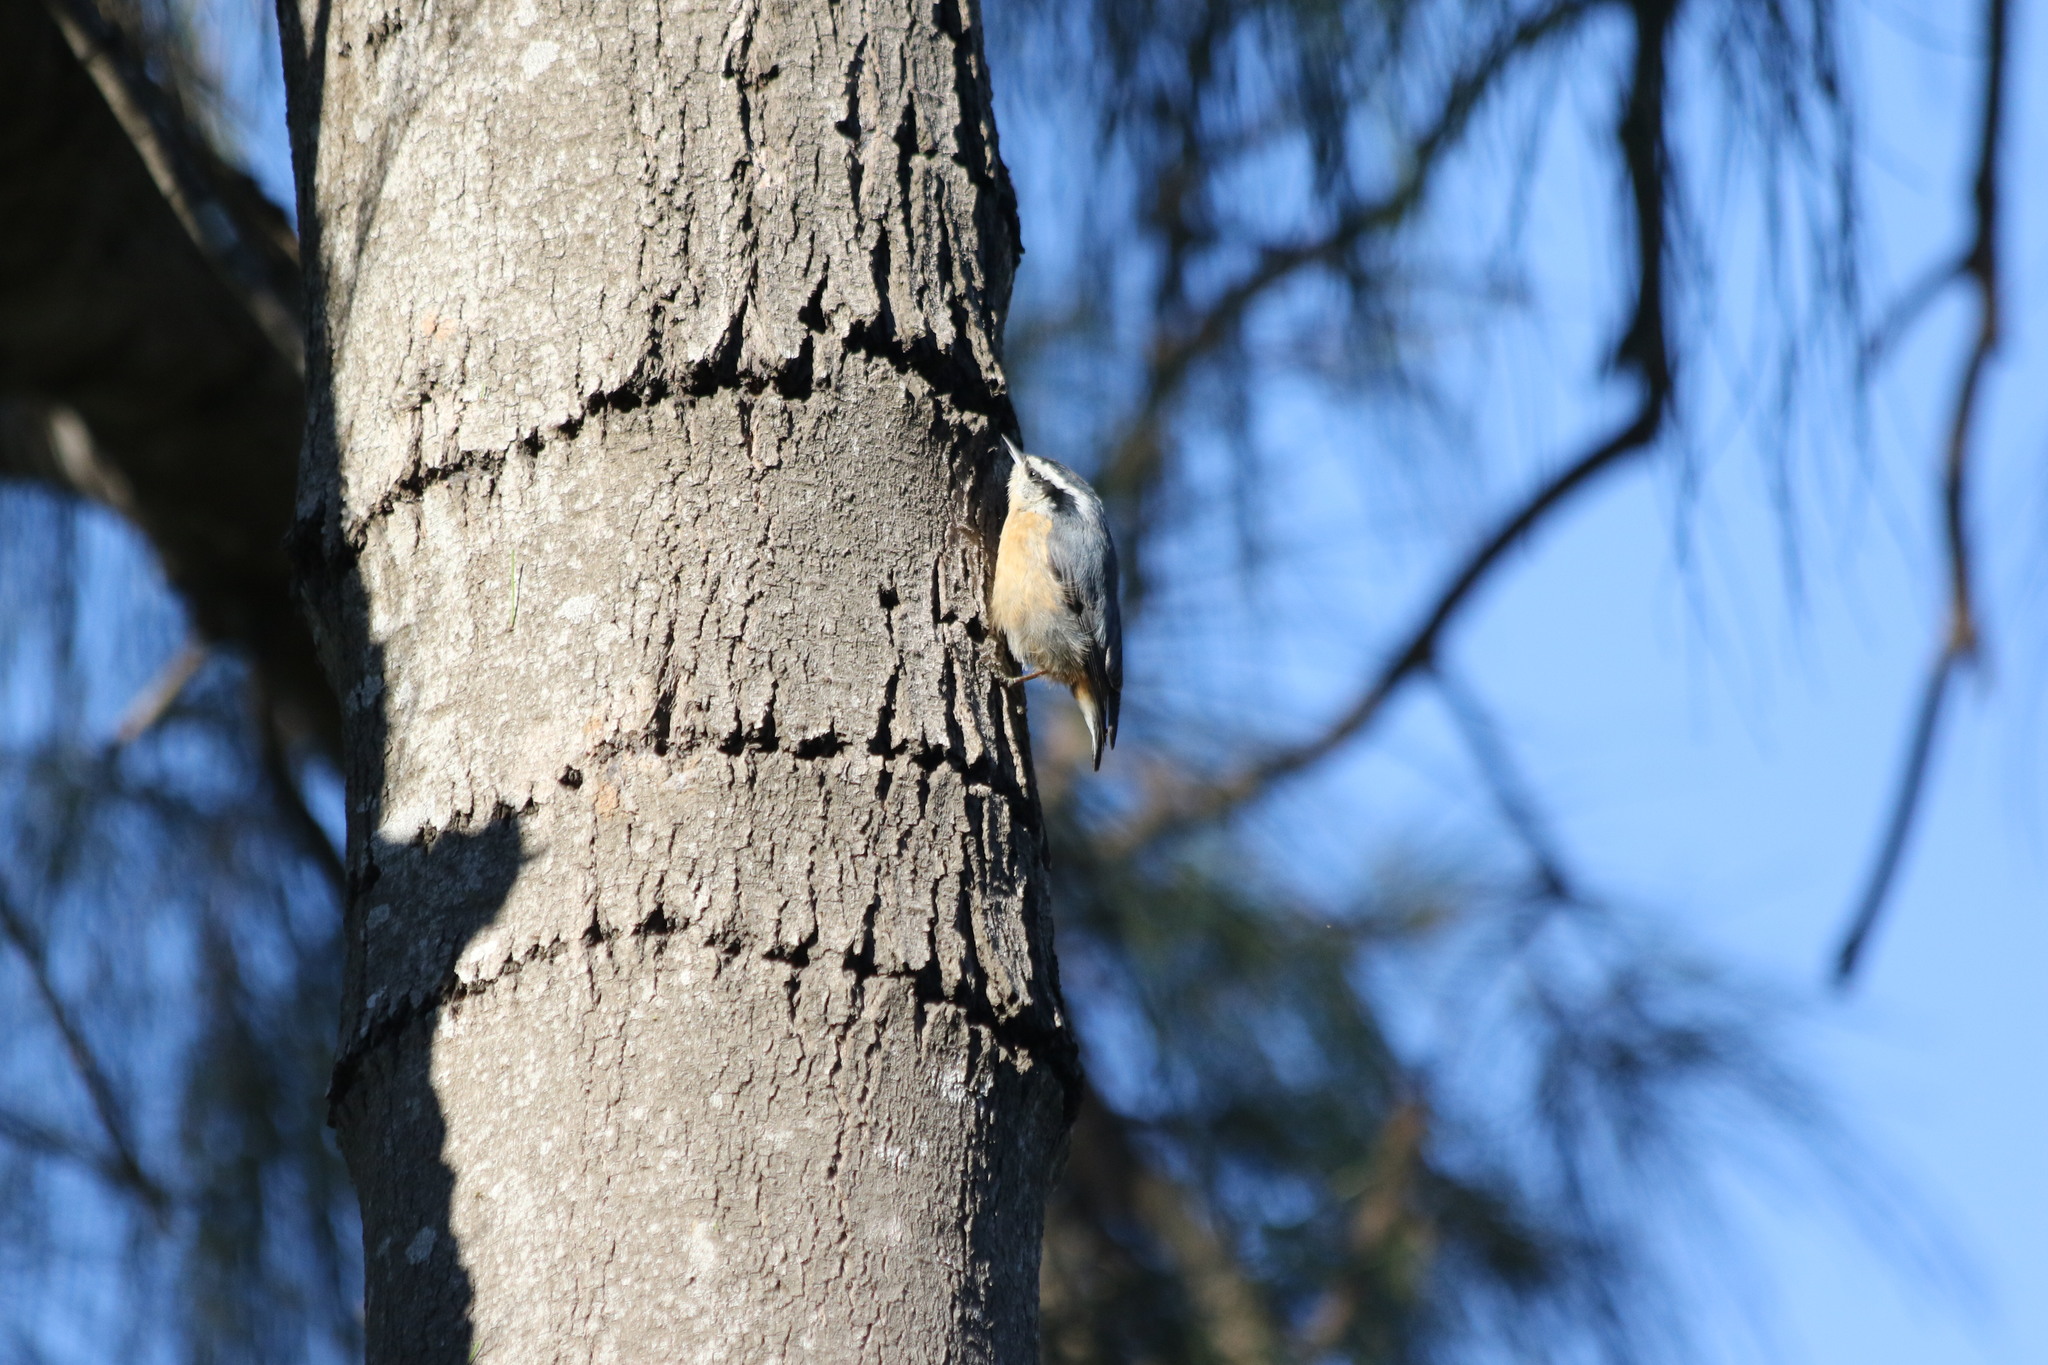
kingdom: Animalia
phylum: Chordata
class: Aves
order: Passeriformes
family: Sittidae
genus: Sitta
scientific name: Sitta canadensis
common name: Red-breasted nuthatch
